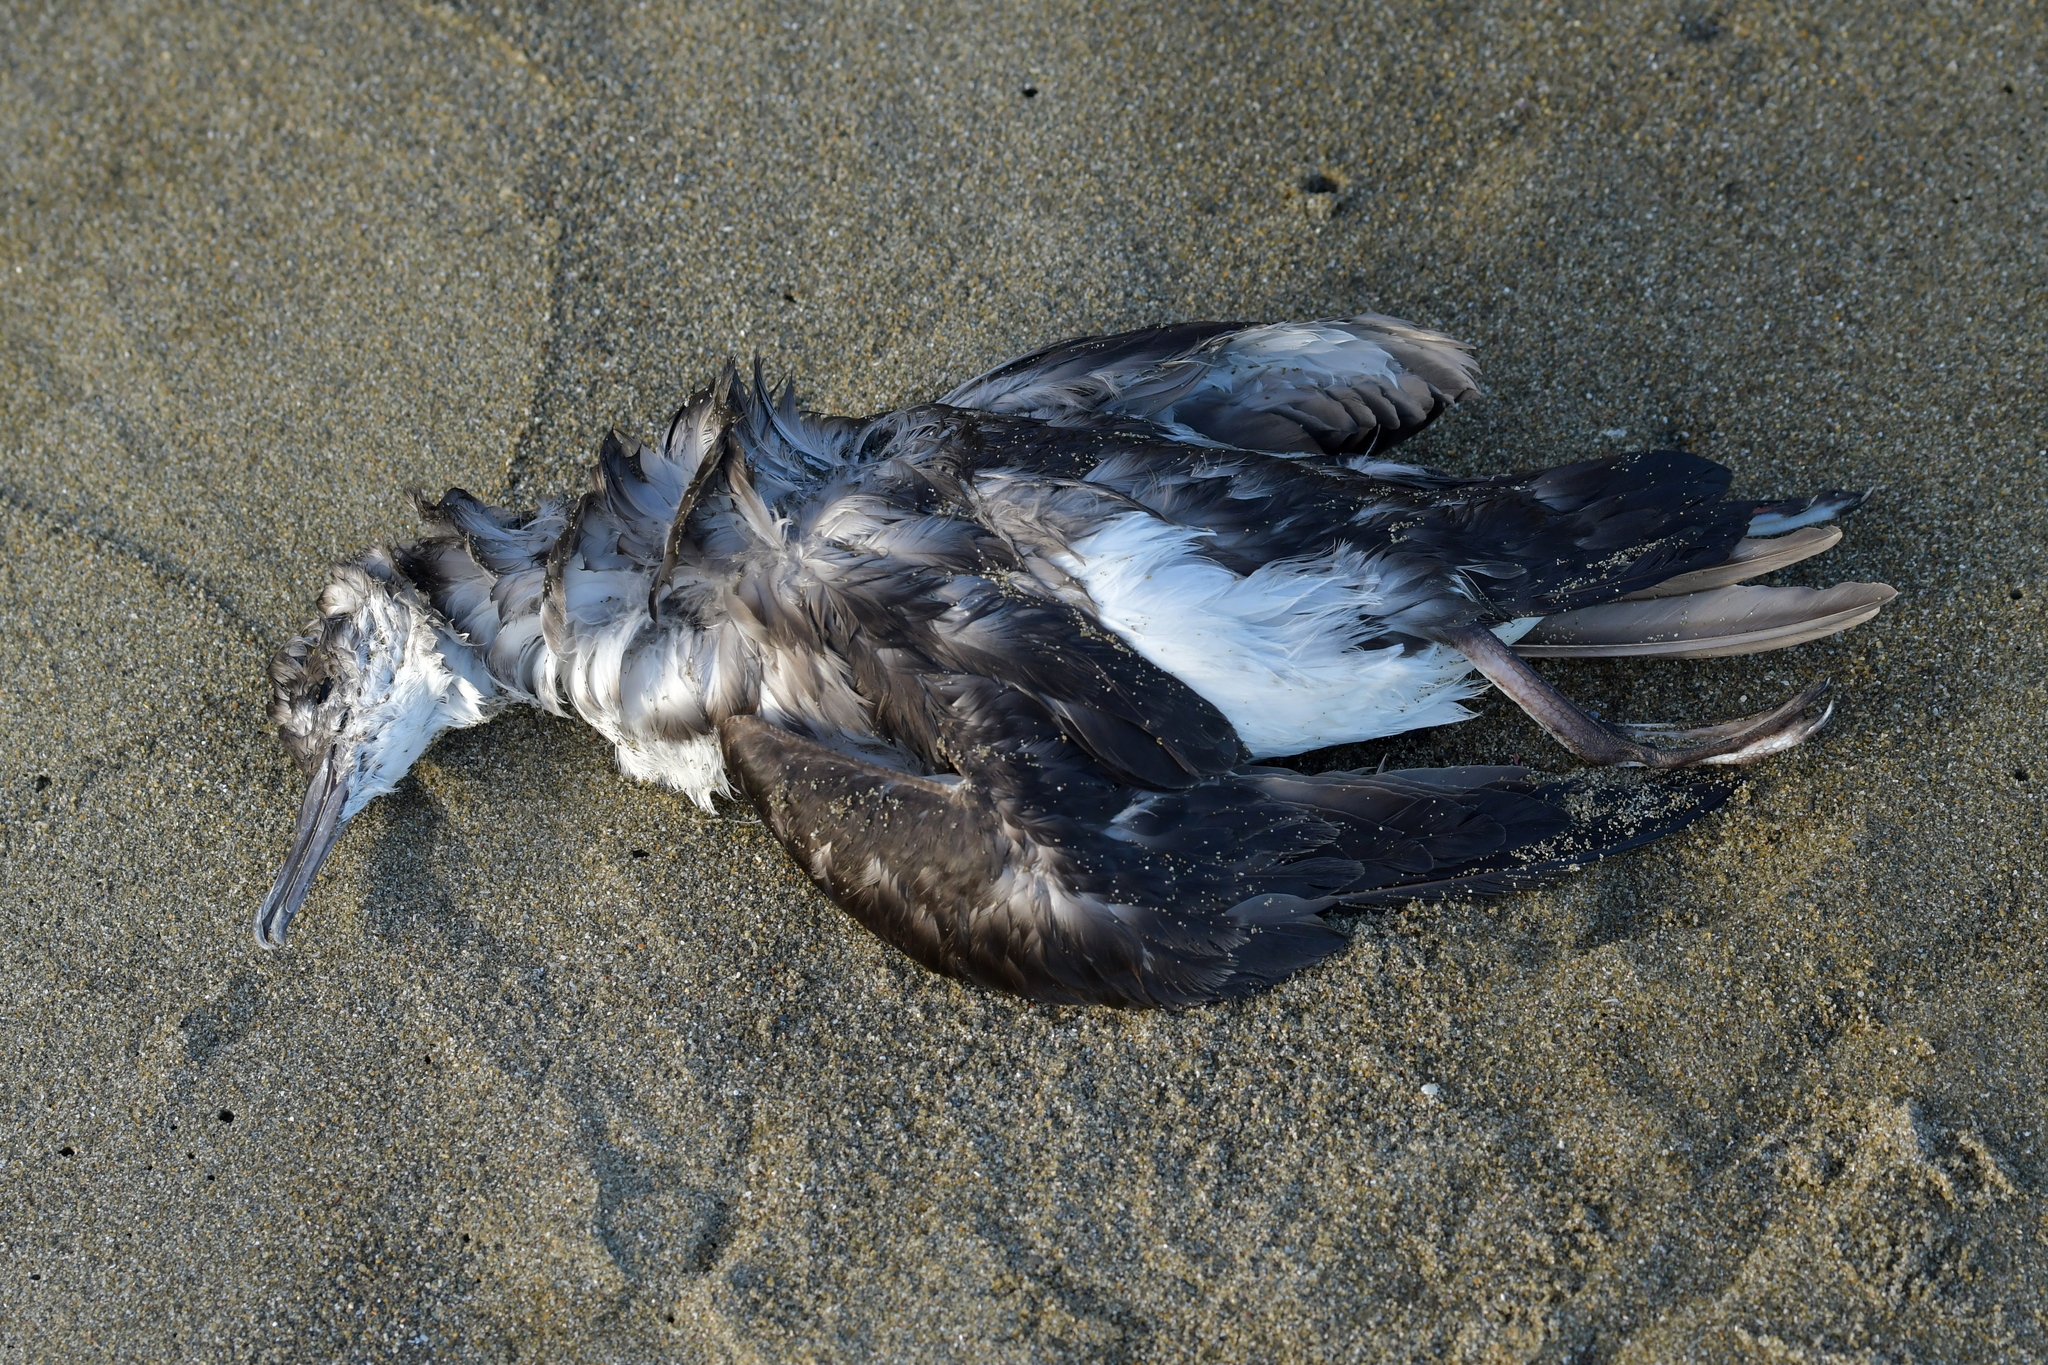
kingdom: Animalia
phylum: Chordata
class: Aves
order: Procellariiformes
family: Procellariidae
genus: Puffinus
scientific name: Puffinus gavia
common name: Fluttering shearwater
